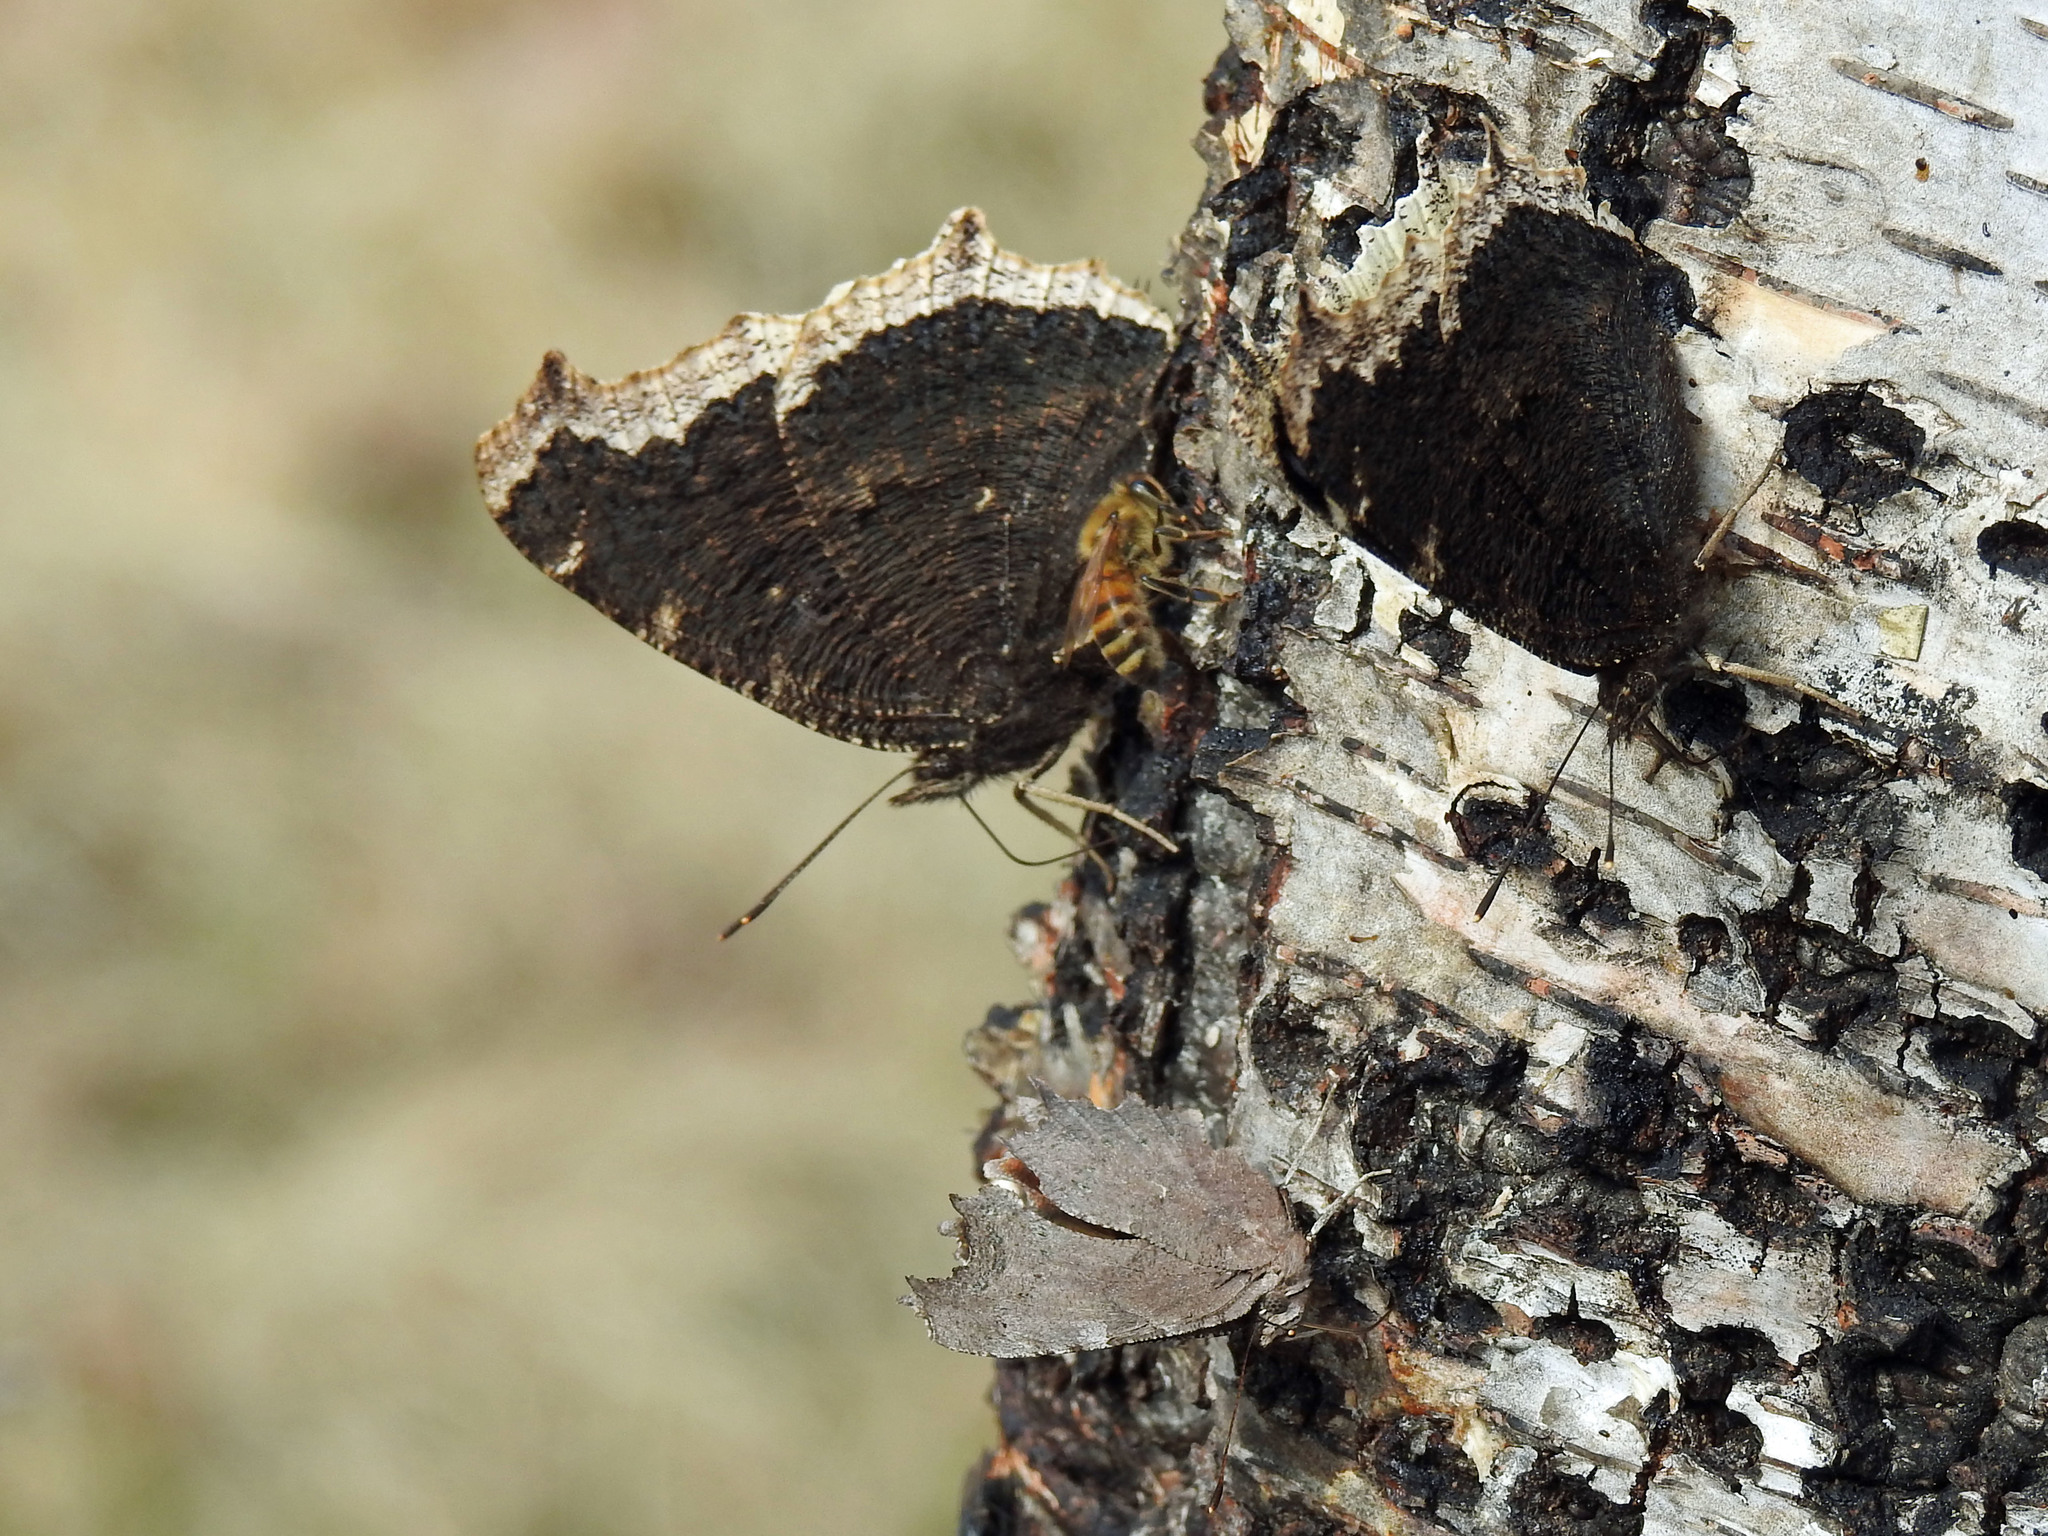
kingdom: Animalia
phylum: Arthropoda
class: Insecta
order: Lepidoptera
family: Nymphalidae
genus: Nymphalis
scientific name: Nymphalis antiopa
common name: Camberwell beauty
